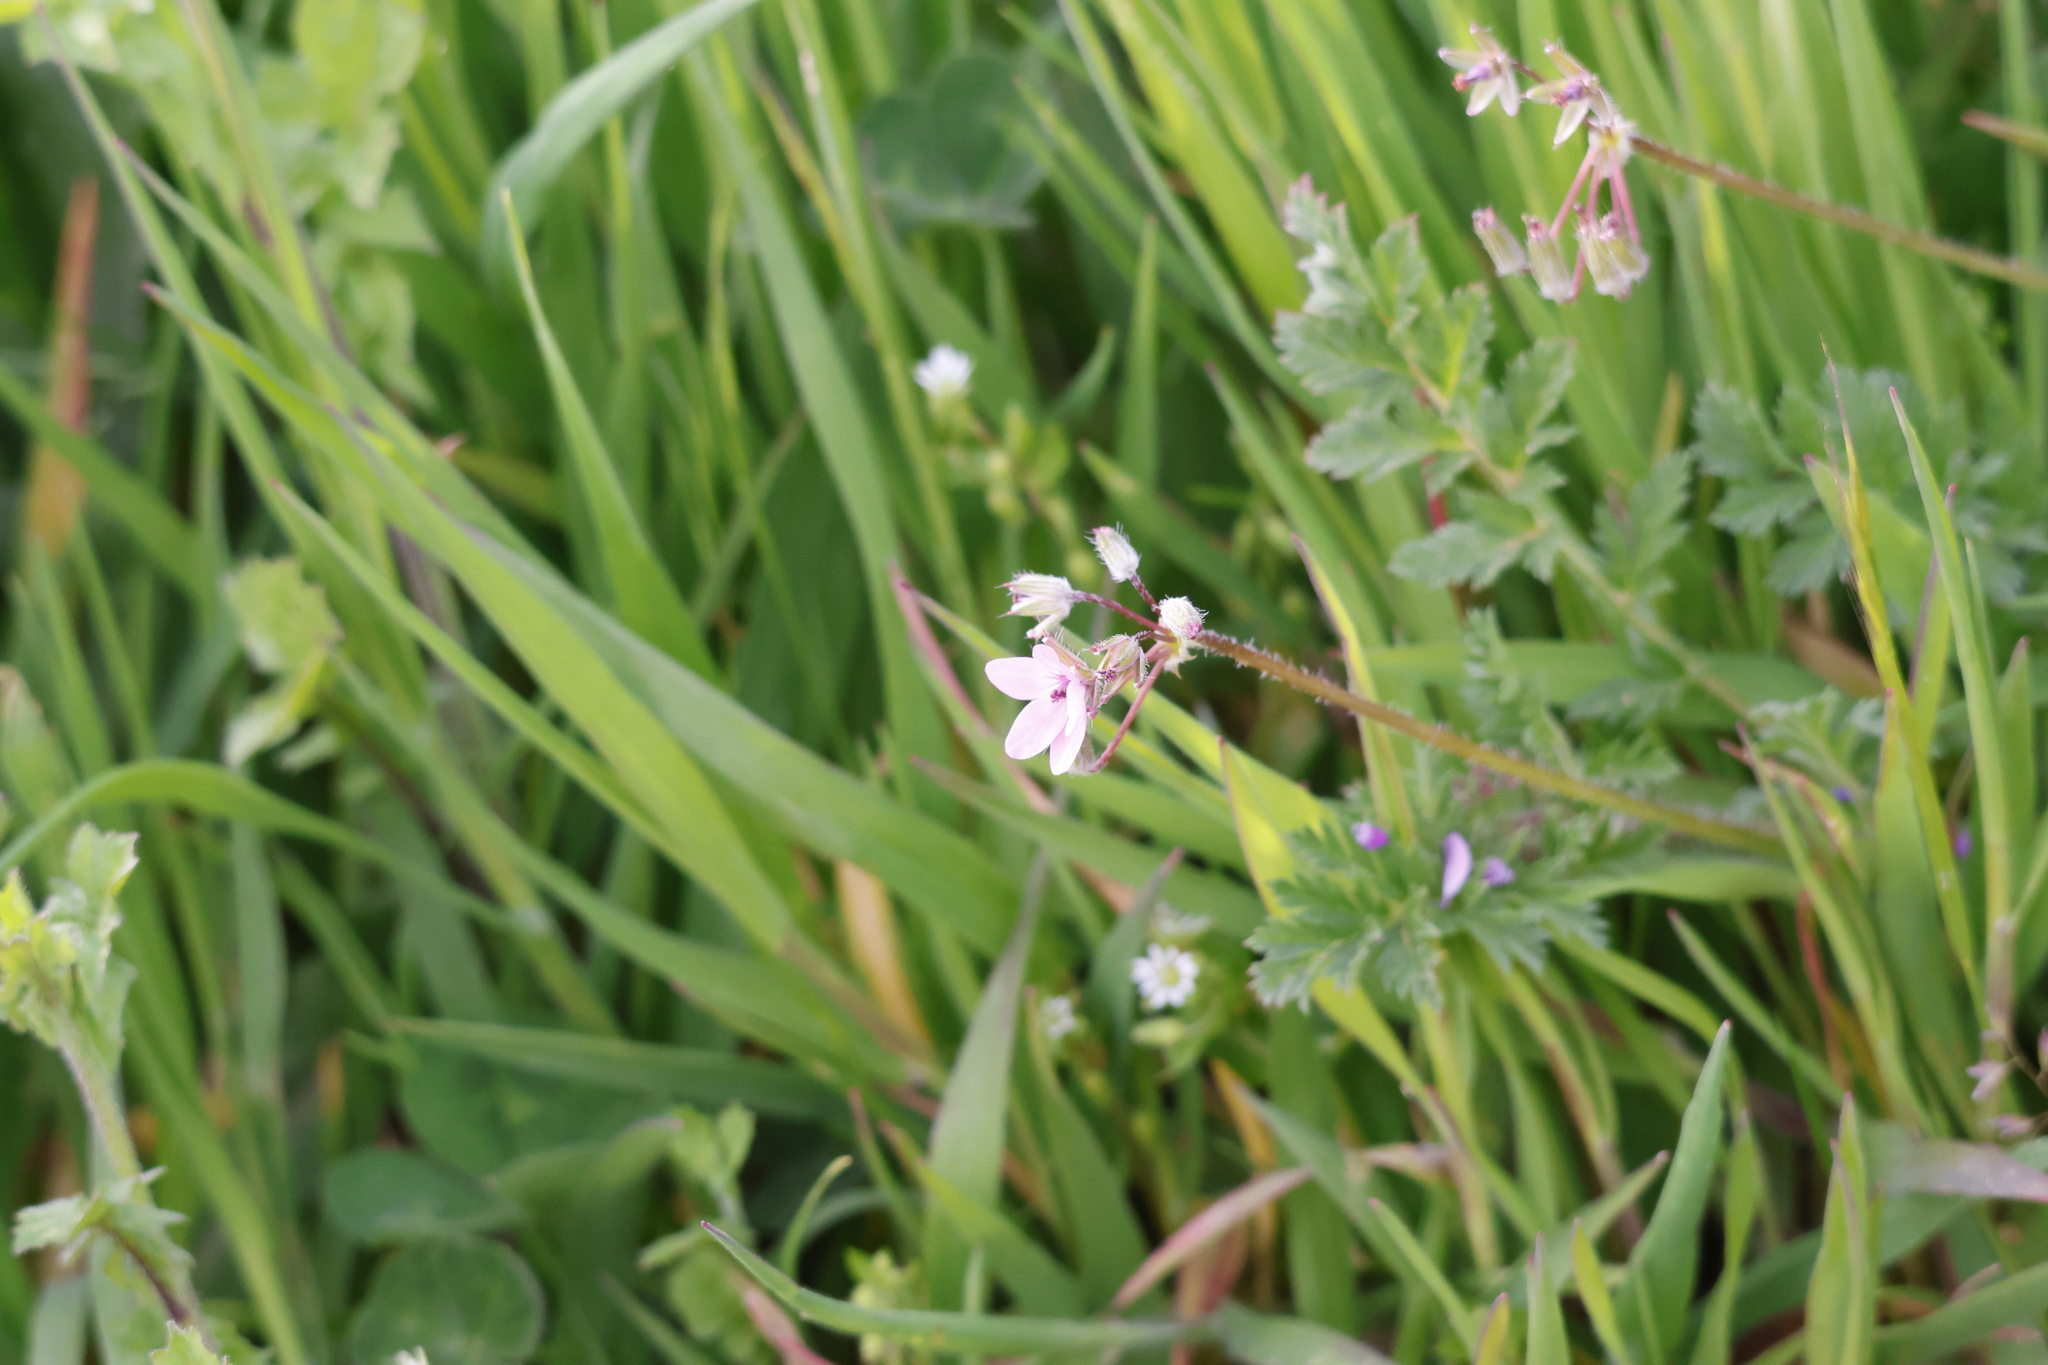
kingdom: Plantae
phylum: Tracheophyta
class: Magnoliopsida
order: Geraniales
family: Geraniaceae
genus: Erodium
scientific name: Erodium cicutarium
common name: Common stork's-bill
